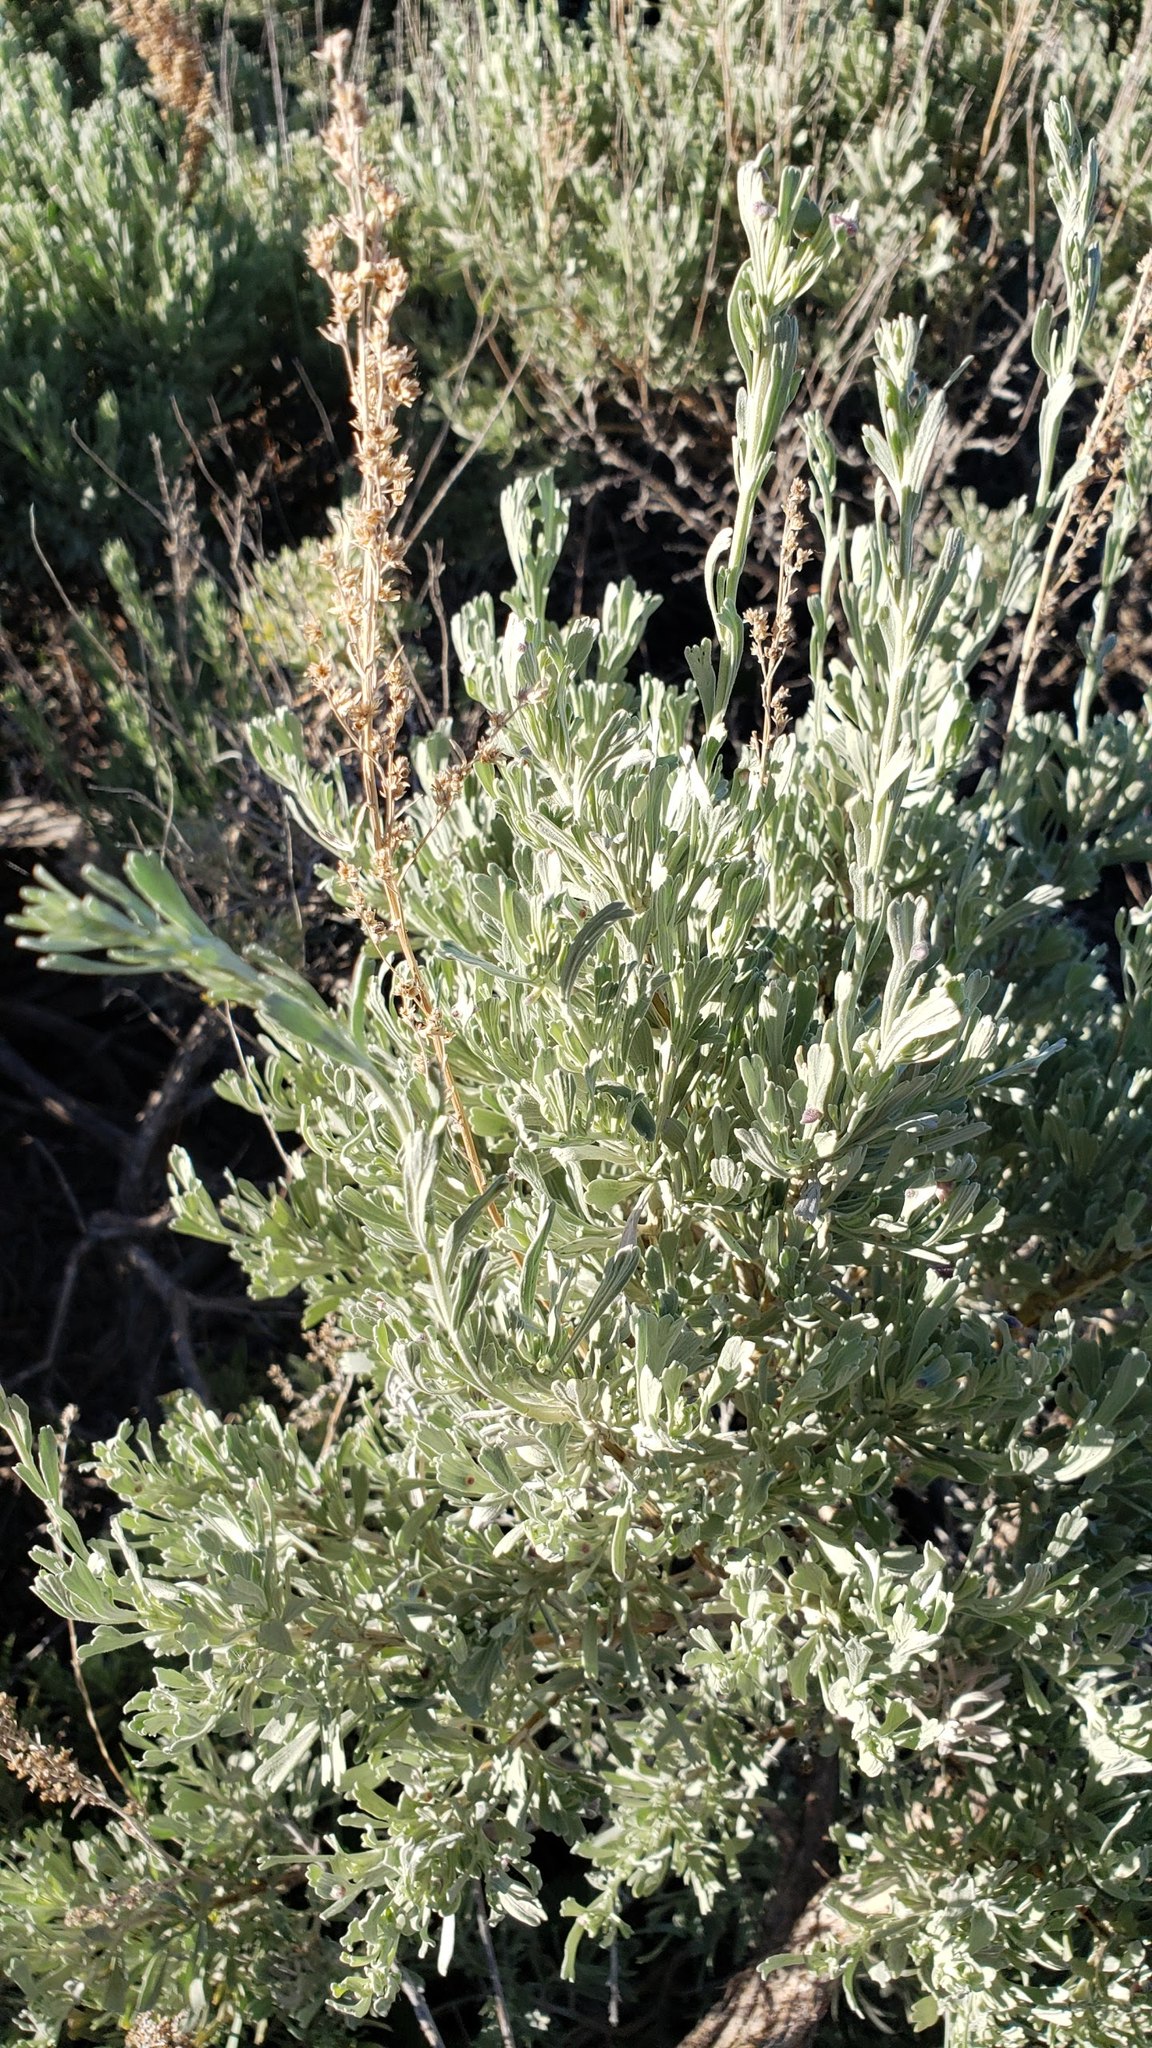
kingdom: Plantae
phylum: Tracheophyta
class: Magnoliopsida
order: Asterales
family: Asteraceae
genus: Artemisia
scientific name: Artemisia tridentata
